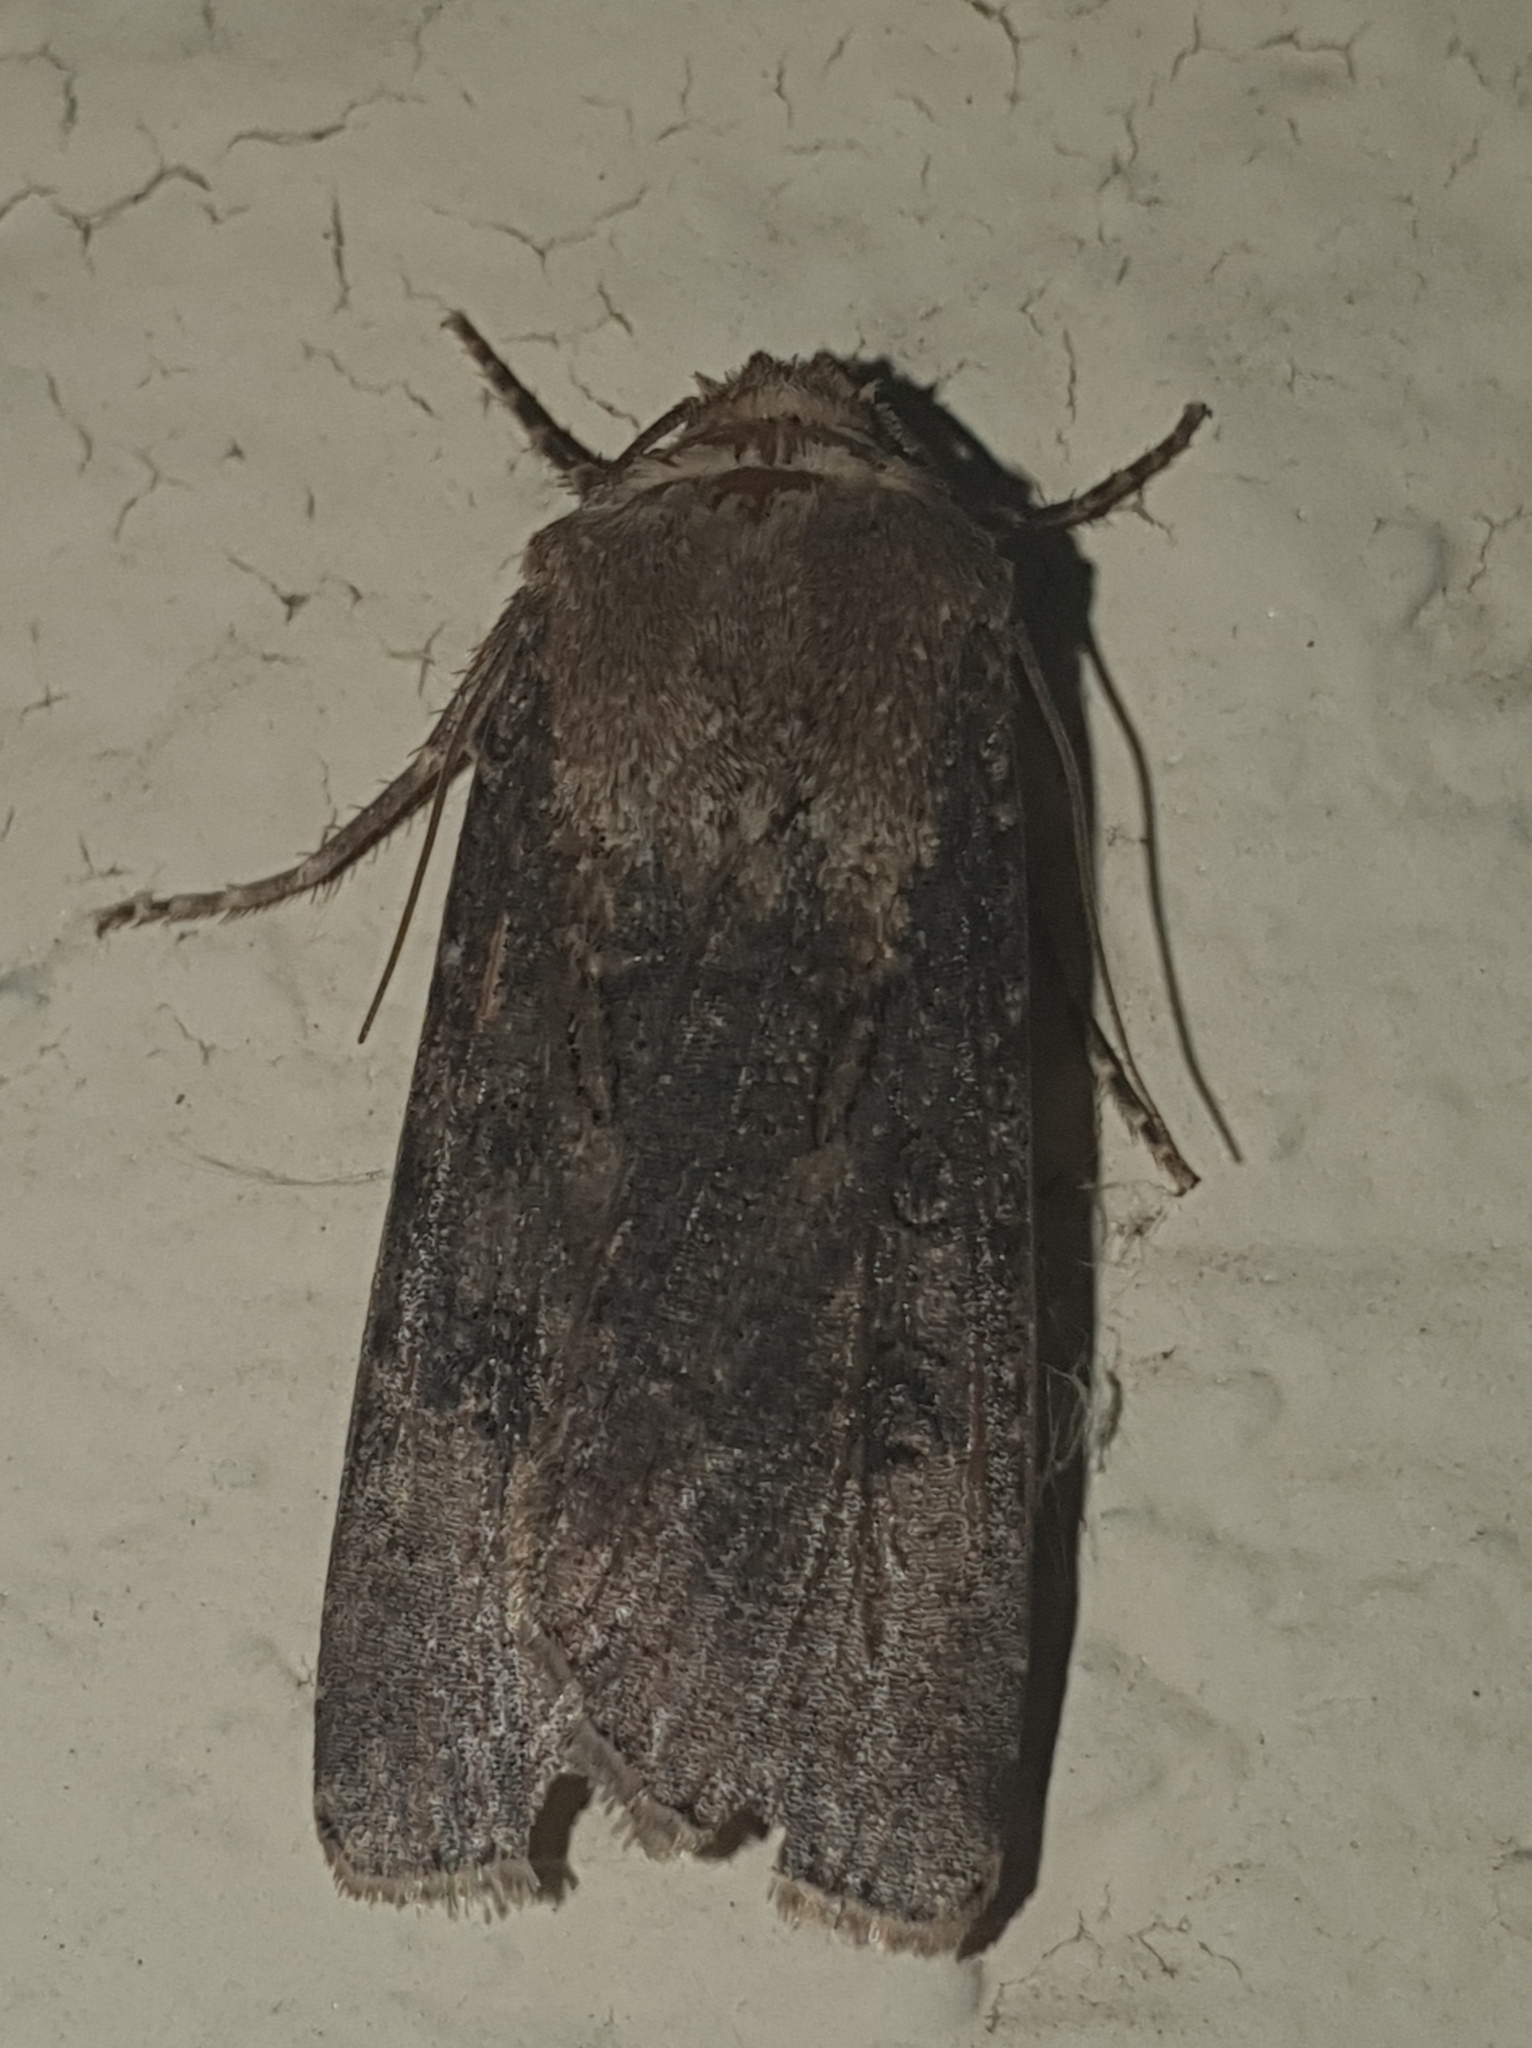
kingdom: Animalia
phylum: Arthropoda
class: Insecta
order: Lepidoptera
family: Noctuidae
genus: Agrotis
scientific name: Agrotis segetum
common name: Turnip moth
